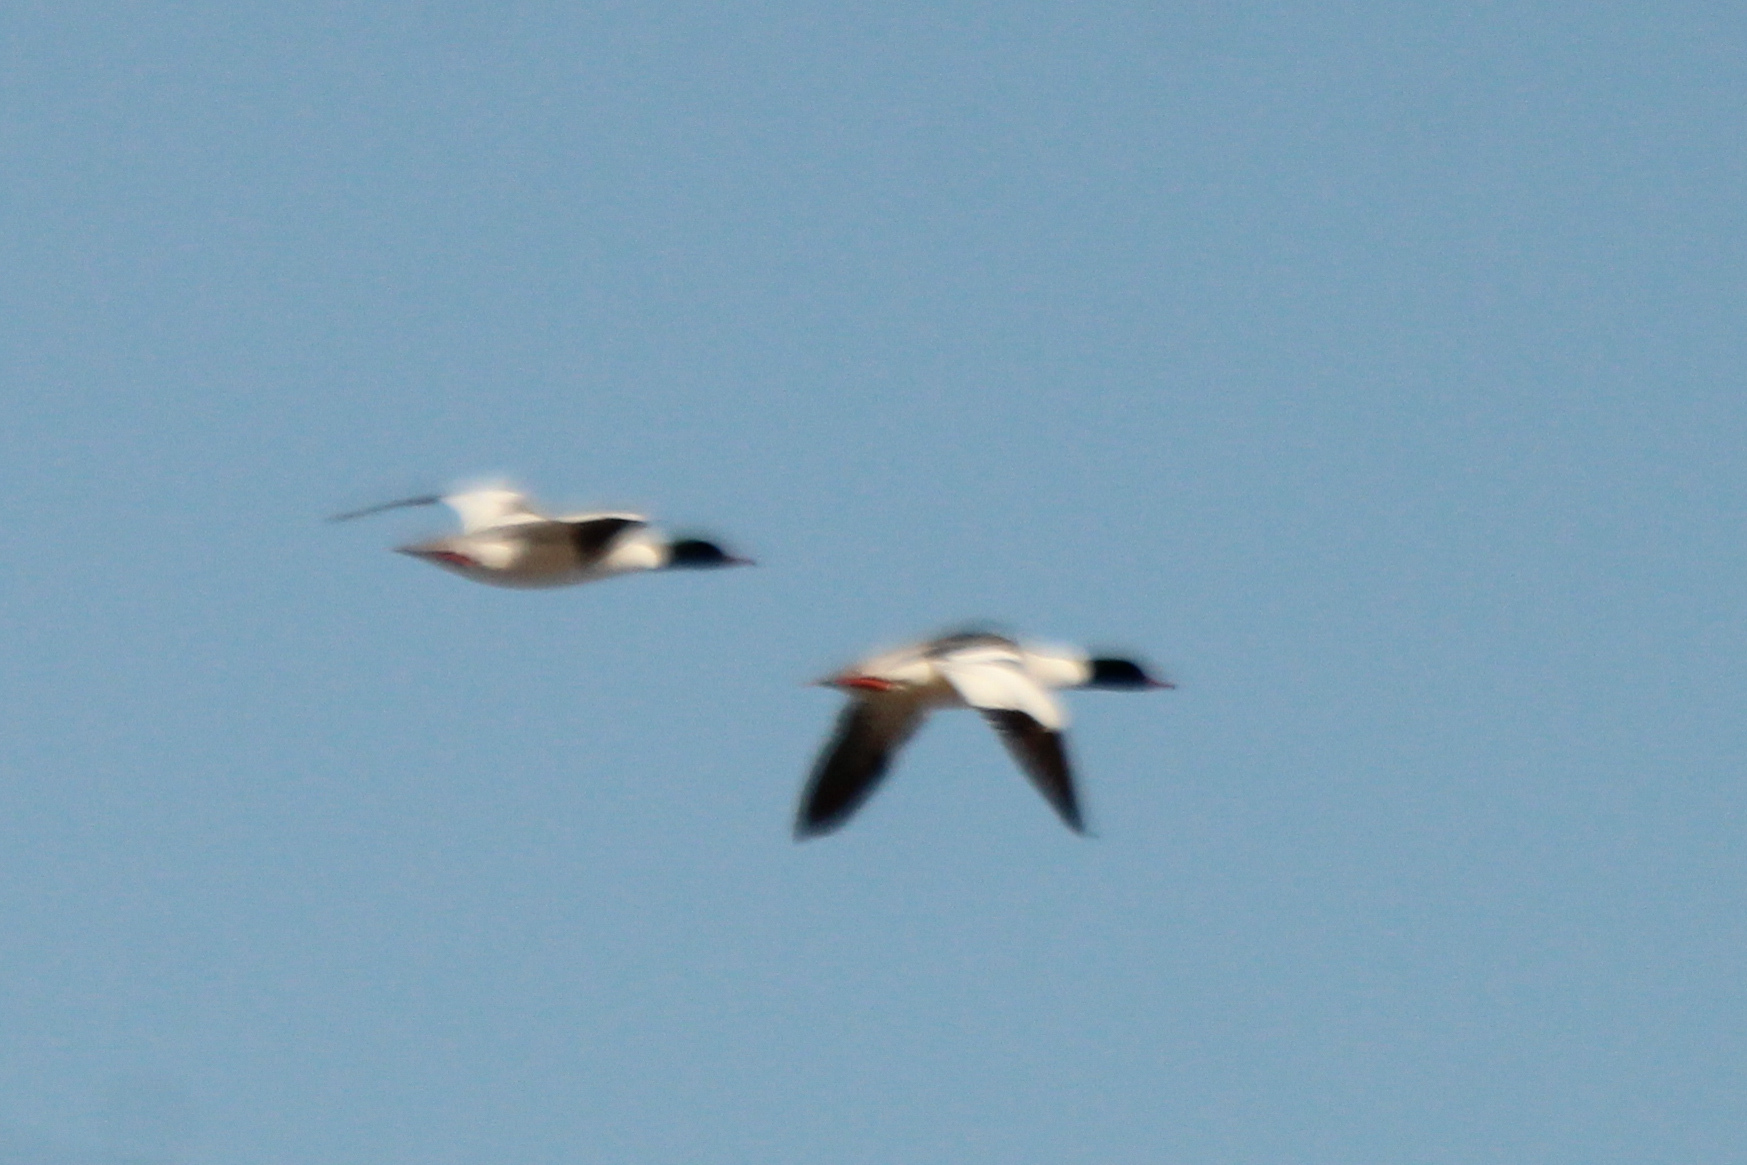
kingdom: Animalia
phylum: Chordata
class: Aves
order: Anseriformes
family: Anatidae
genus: Mergus
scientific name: Mergus merganser
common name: Common merganser
